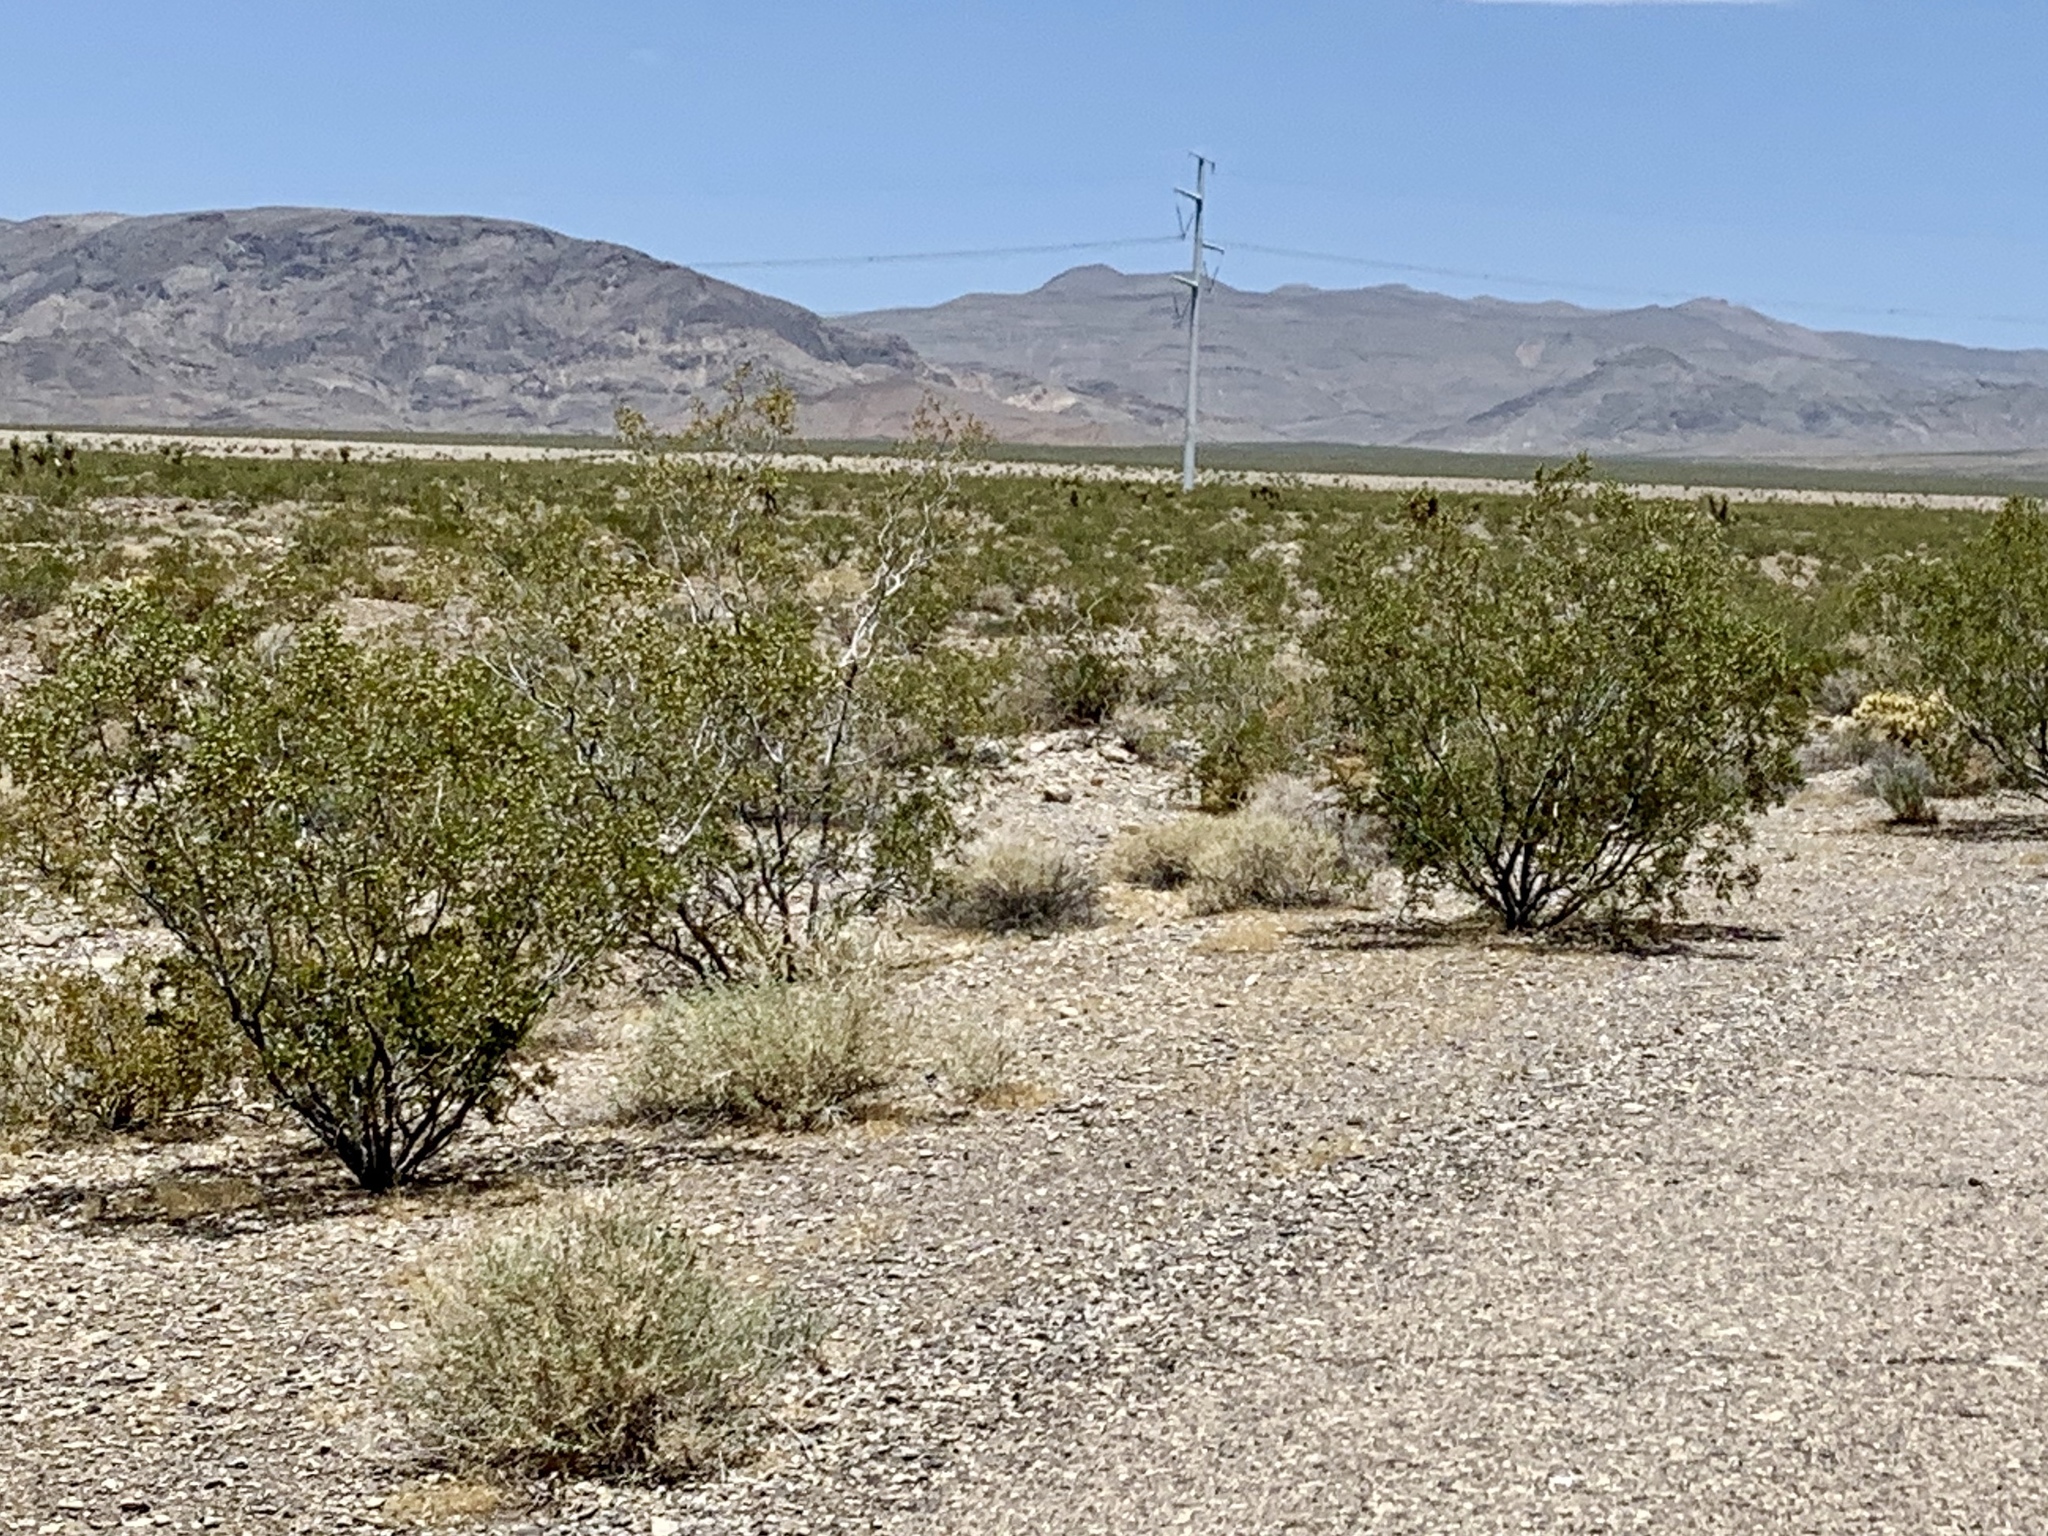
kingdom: Plantae
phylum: Tracheophyta
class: Magnoliopsida
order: Zygophyllales
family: Zygophyllaceae
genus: Larrea
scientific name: Larrea tridentata
